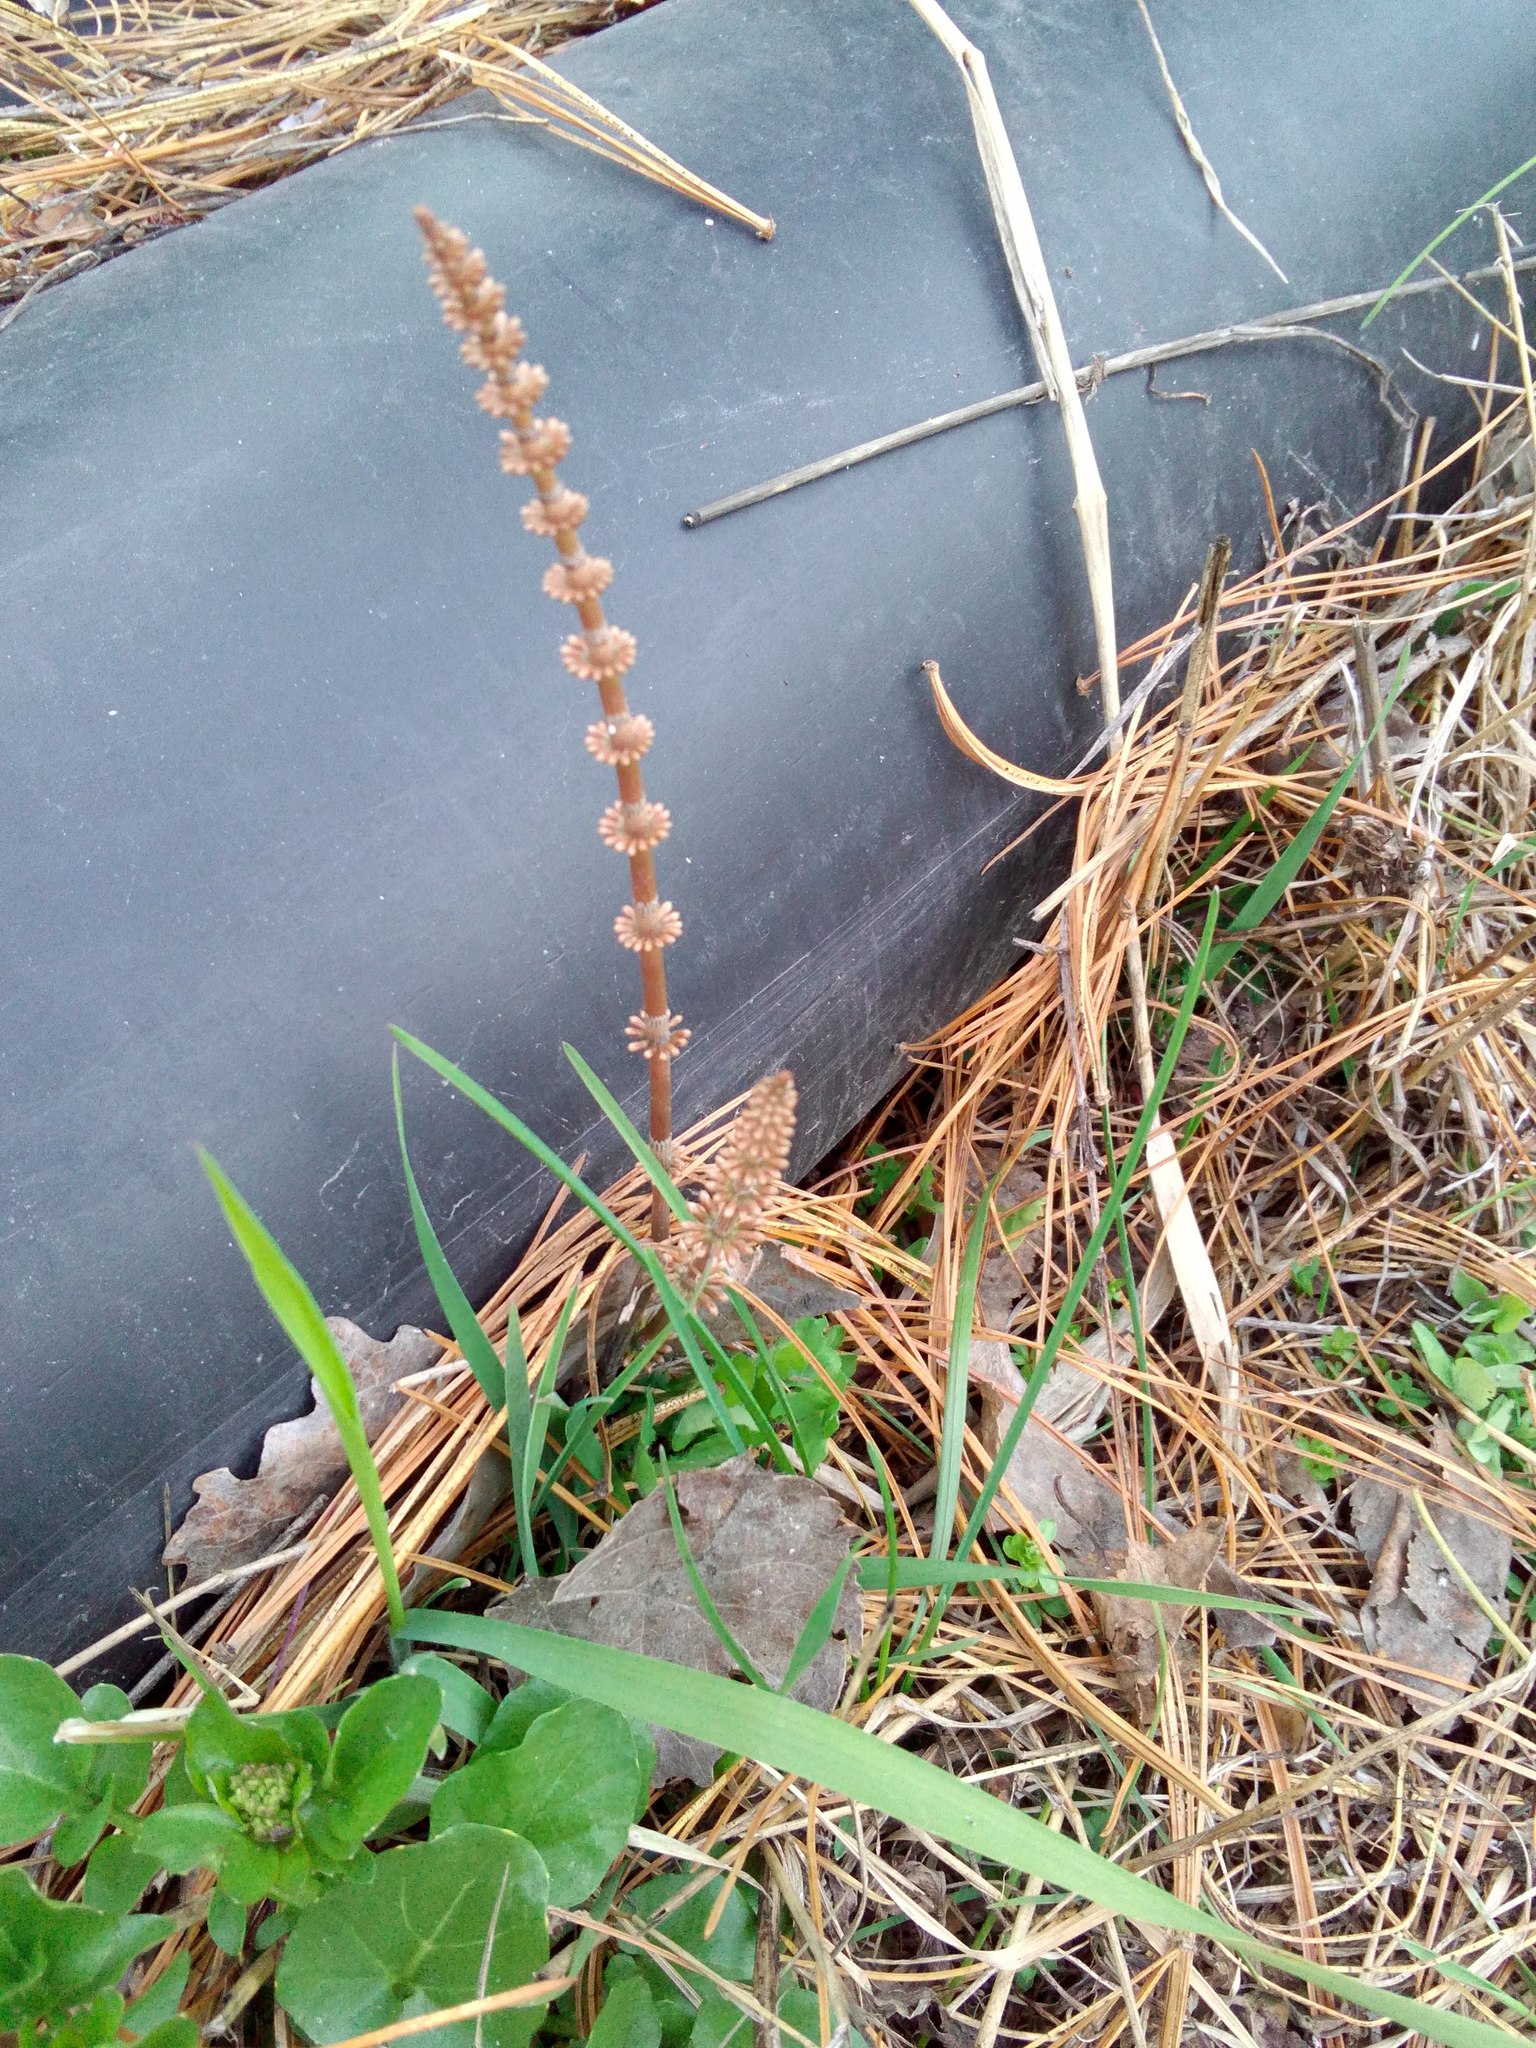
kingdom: Plantae
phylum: Tracheophyta
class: Polypodiopsida
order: Equisetales
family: Equisetaceae
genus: Equisetum
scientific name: Equisetum pratense
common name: Meadow horsetail
